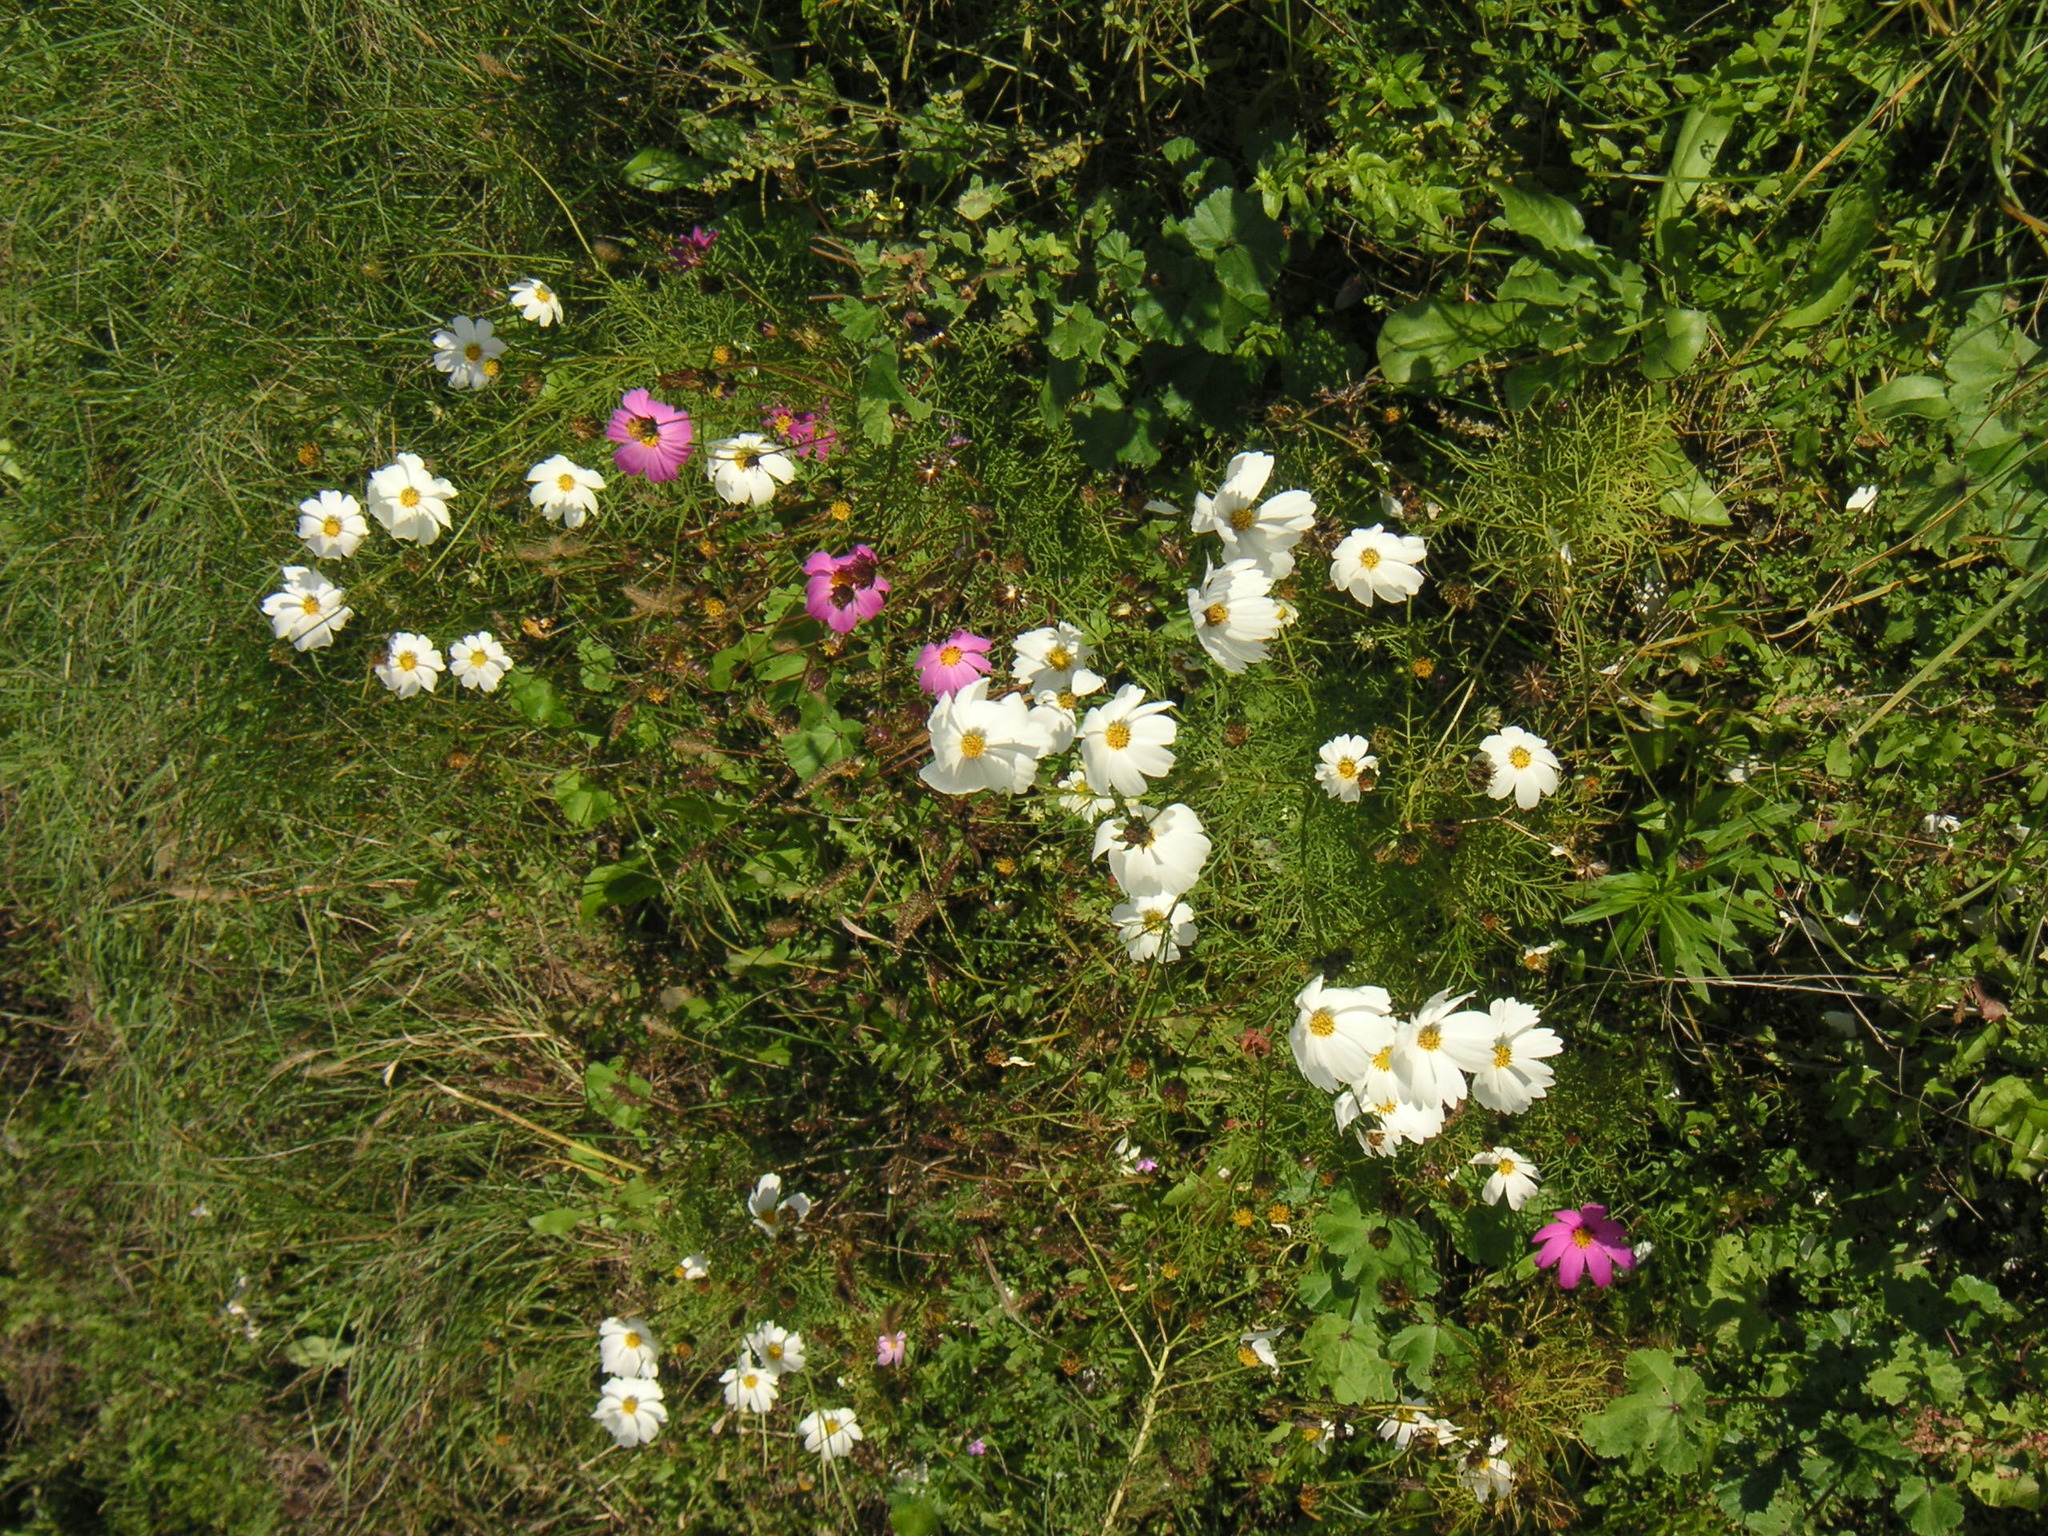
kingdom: Plantae
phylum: Tracheophyta
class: Magnoliopsida
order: Asterales
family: Asteraceae
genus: Cosmos
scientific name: Cosmos bipinnatus
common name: Garden cosmos
